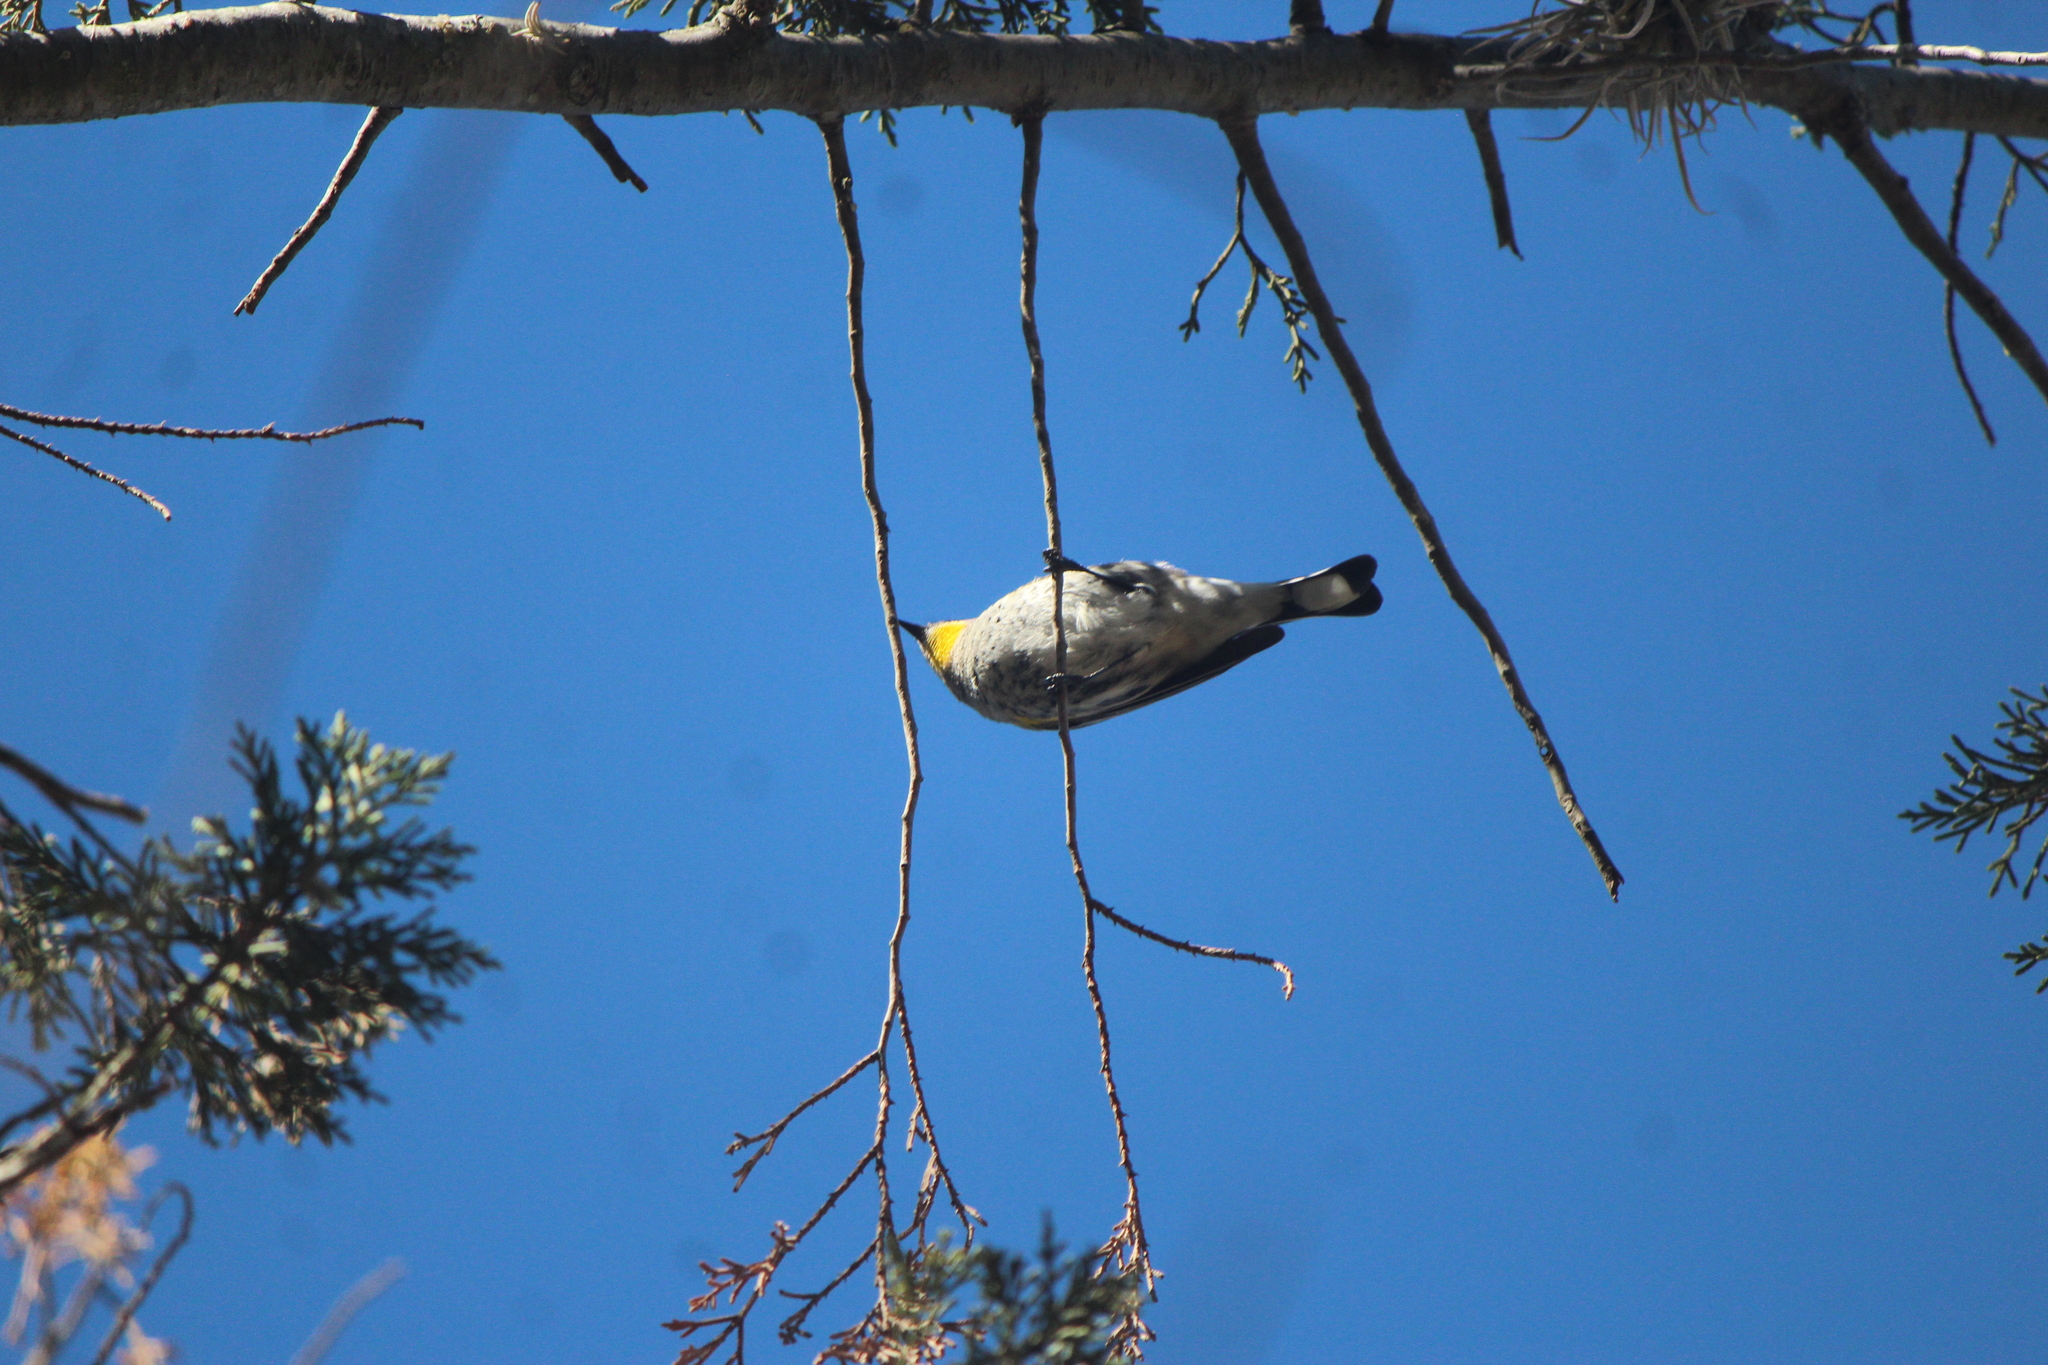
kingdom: Animalia
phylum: Chordata
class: Aves
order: Passeriformes
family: Parulidae
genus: Setophaga
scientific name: Setophaga coronata
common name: Myrtle warbler
